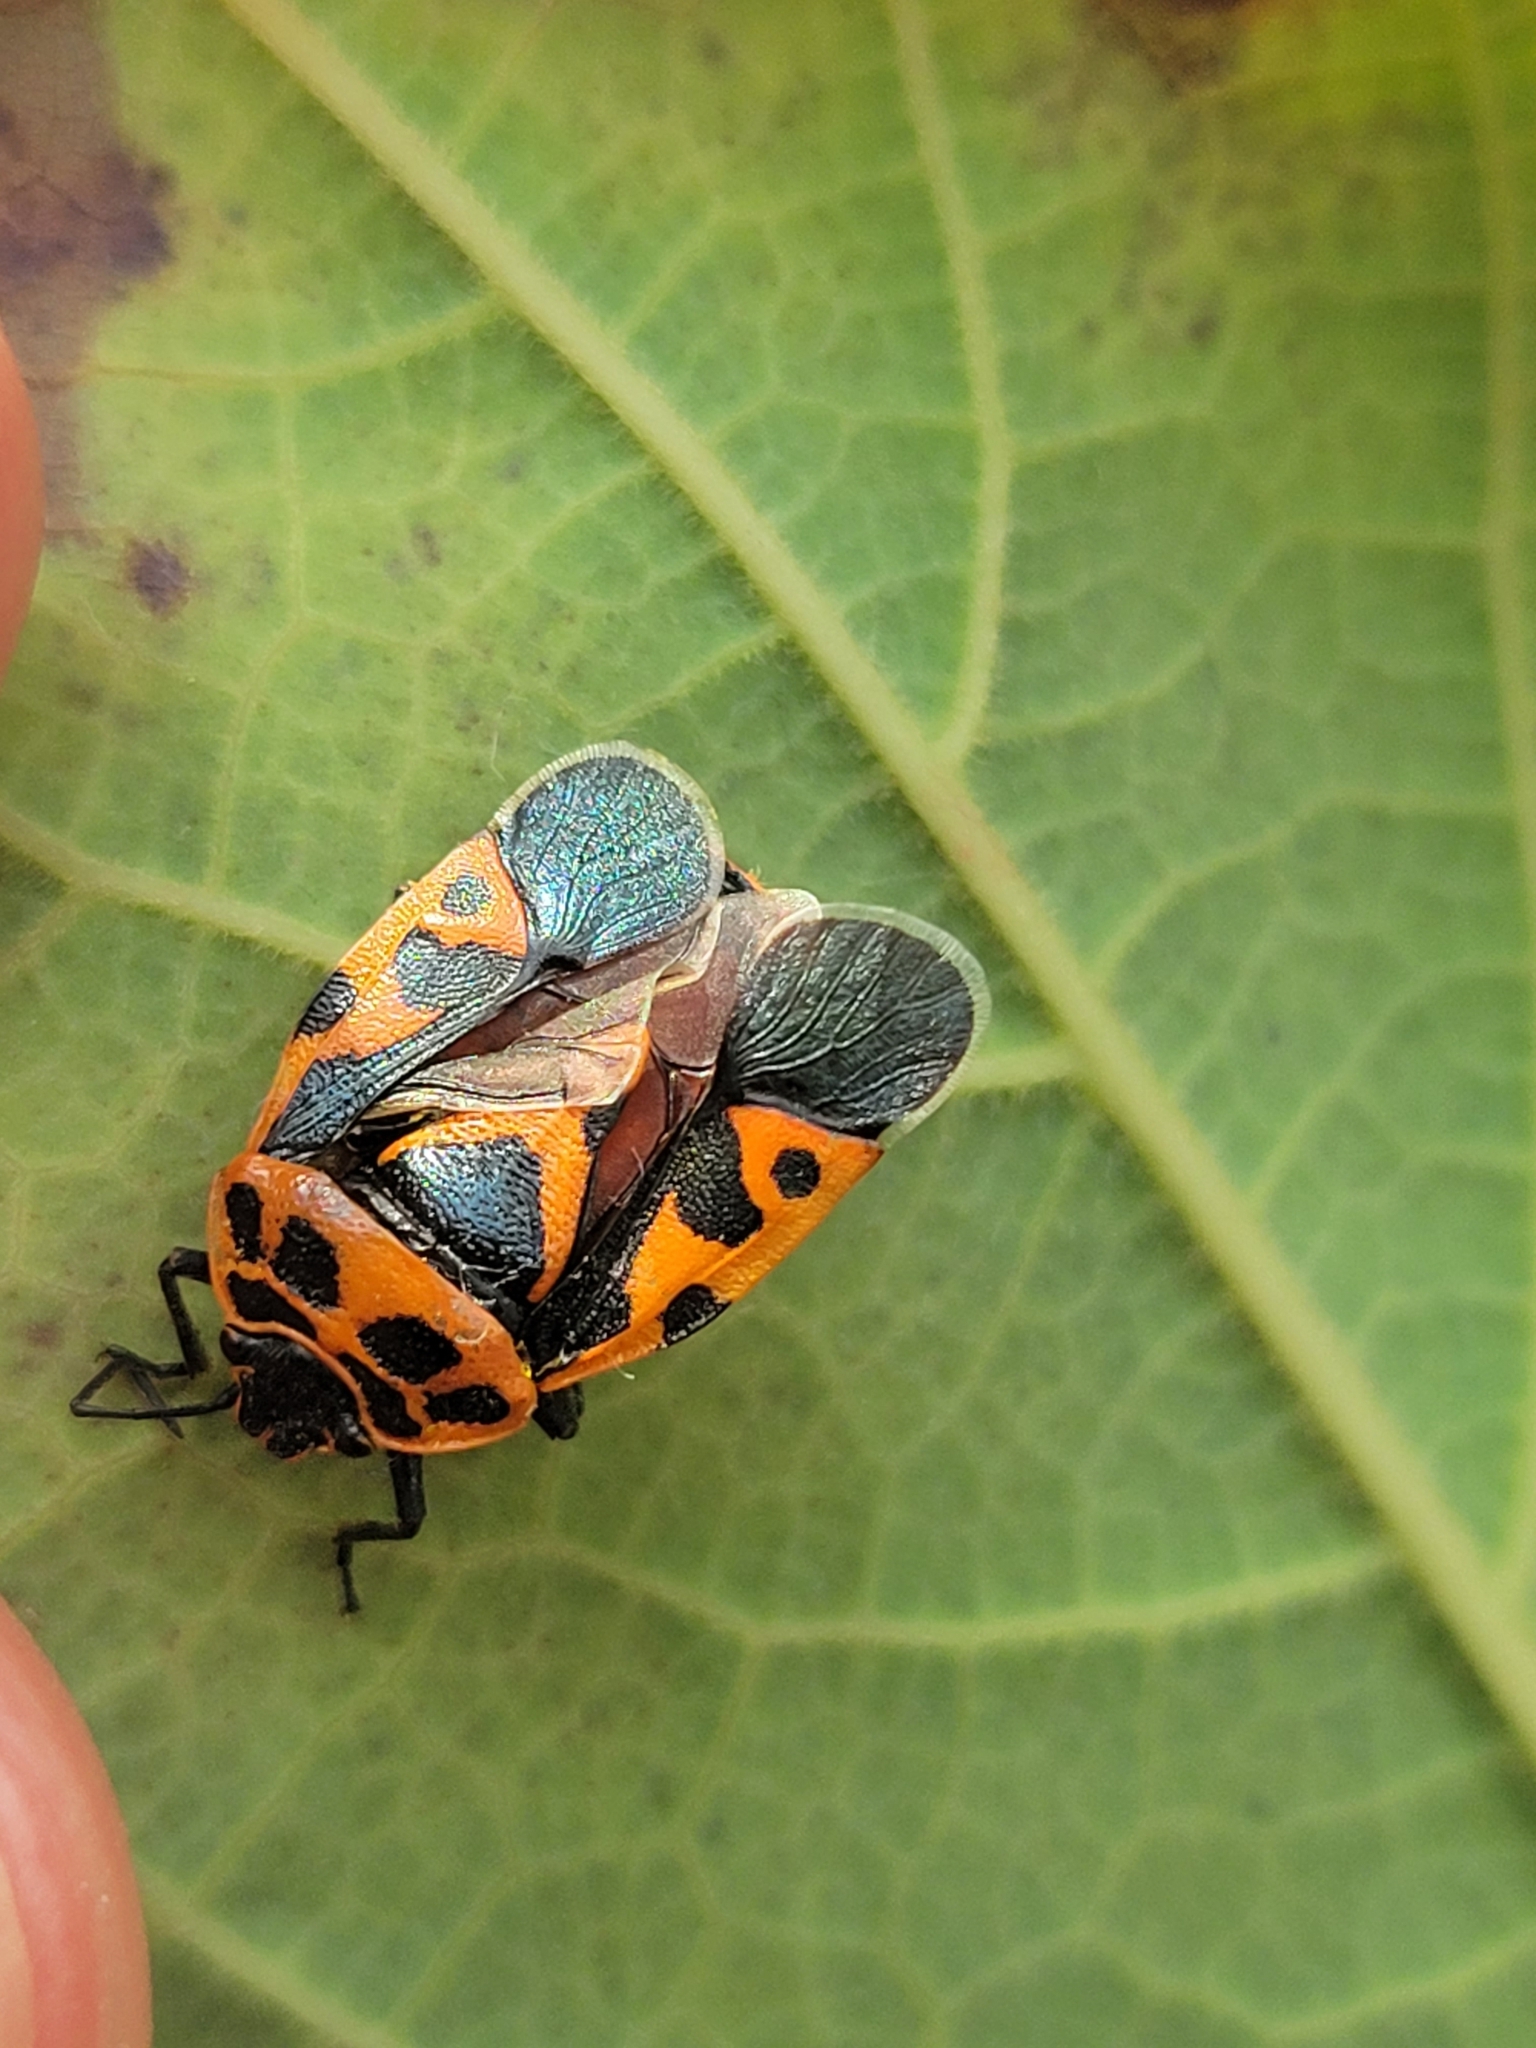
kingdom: Animalia
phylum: Arthropoda
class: Insecta
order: Hemiptera
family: Pentatomidae
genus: Eurydema
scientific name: Eurydema ventralis
